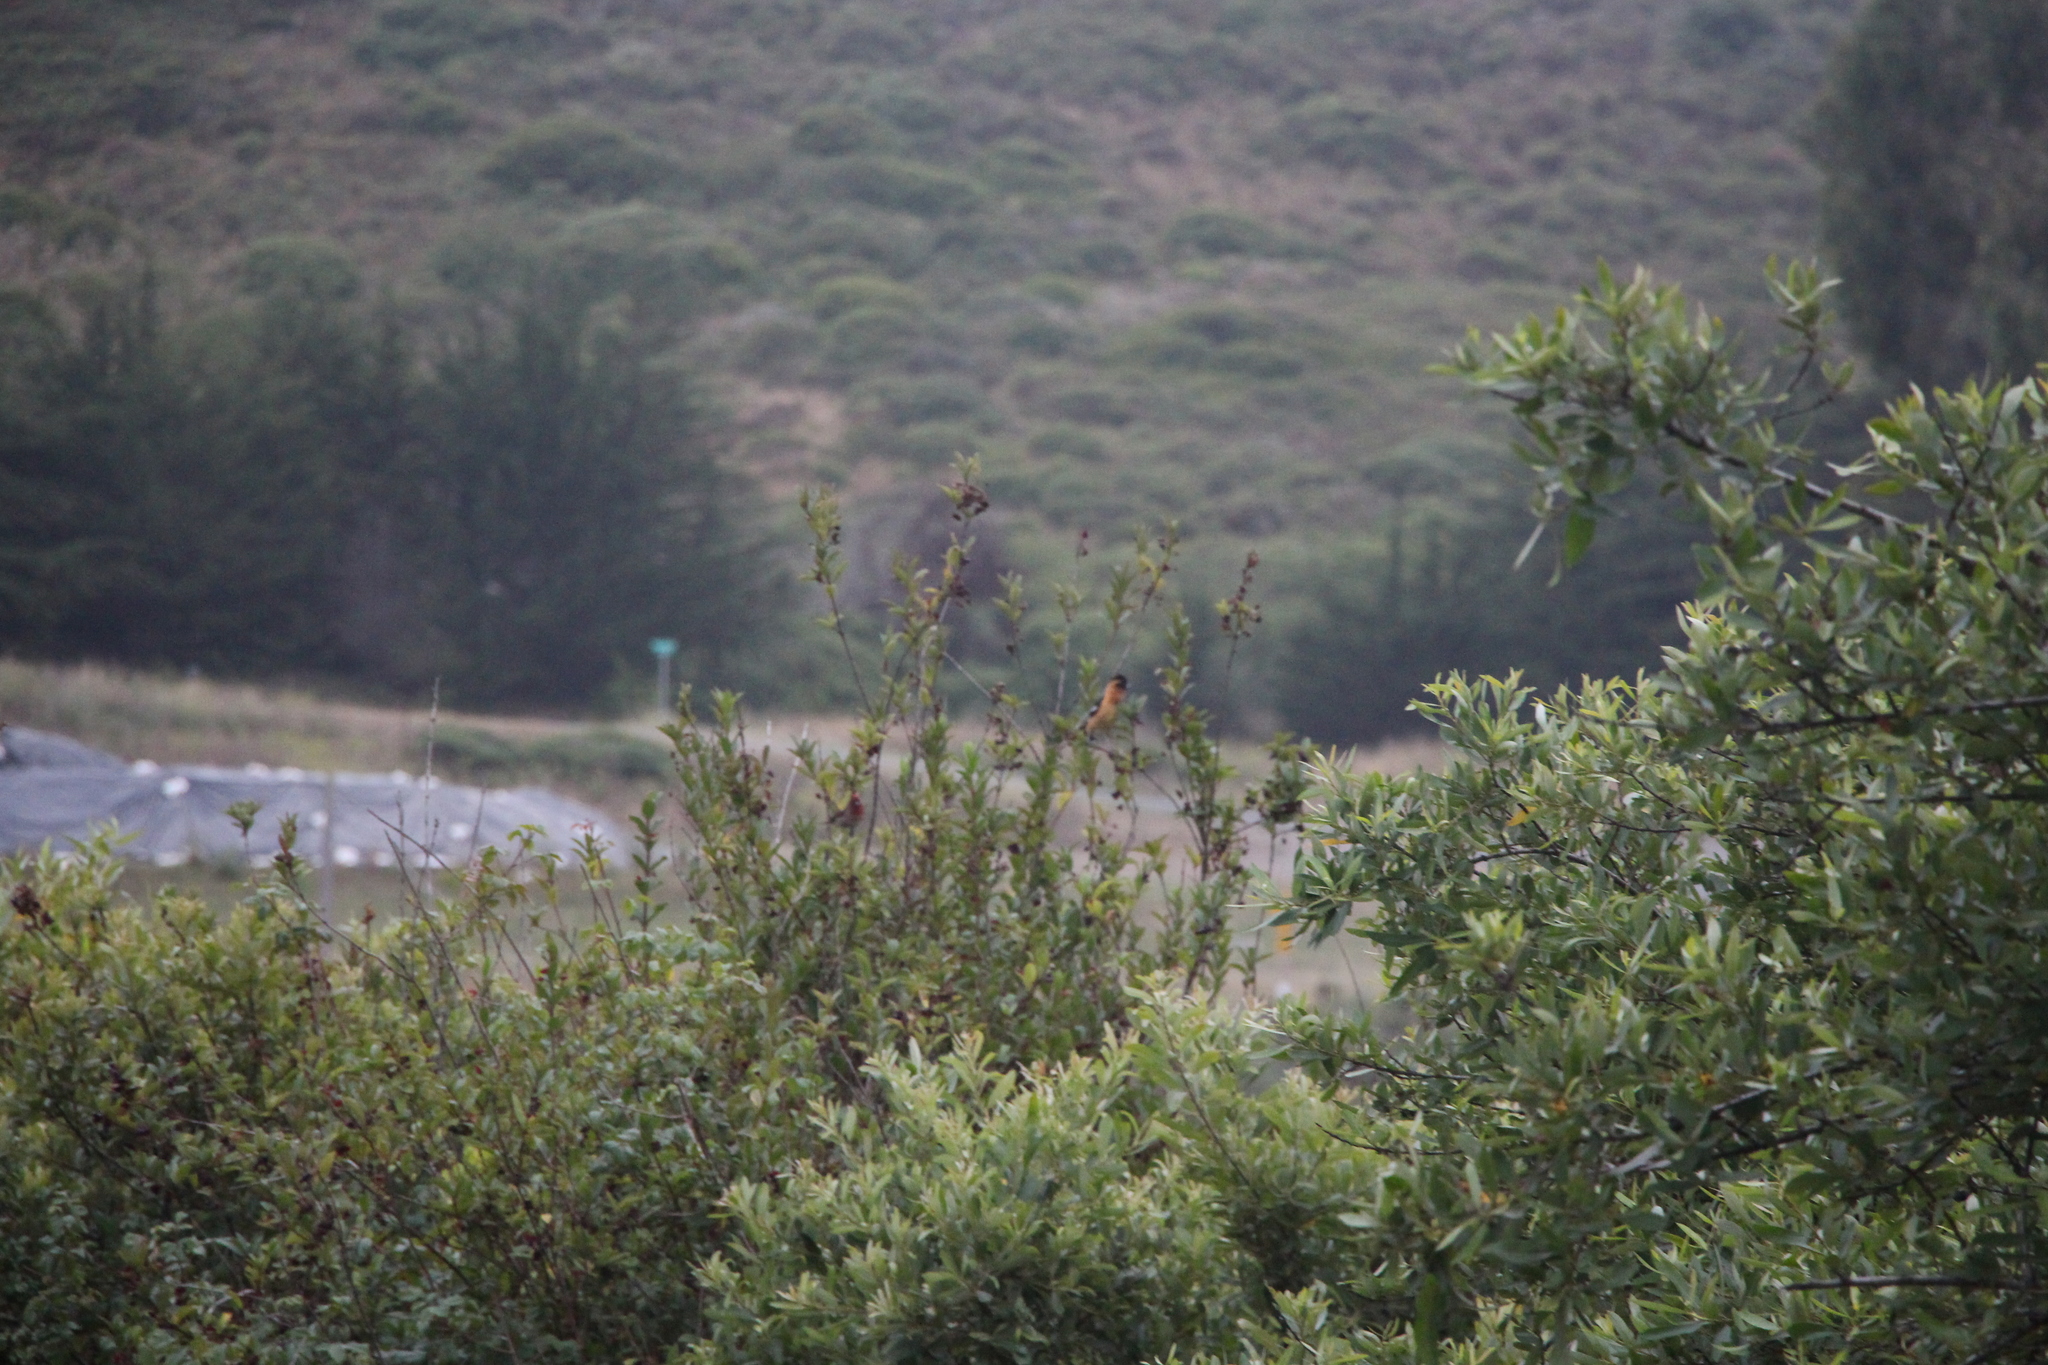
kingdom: Animalia
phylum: Chordata
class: Aves
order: Passeriformes
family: Cardinalidae
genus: Pheucticus
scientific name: Pheucticus melanocephalus
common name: Black-headed grosbeak
